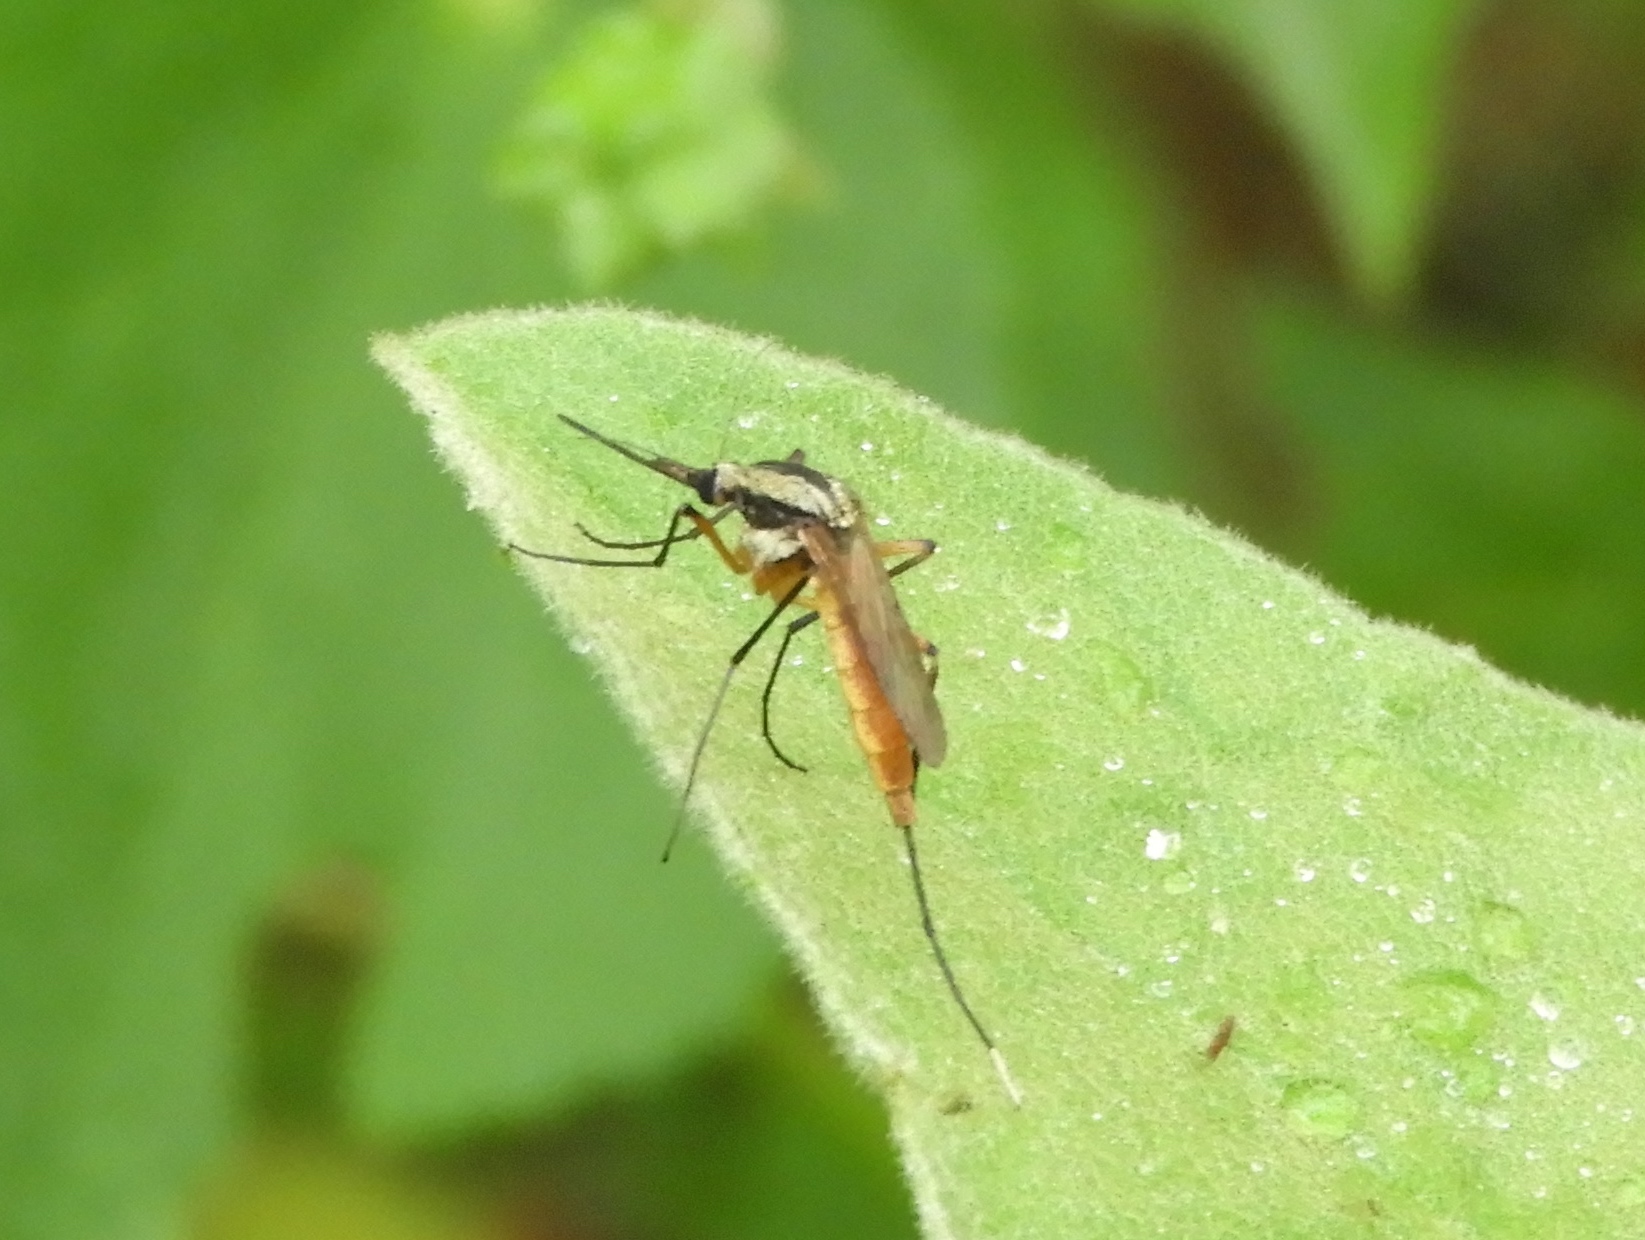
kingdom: Animalia
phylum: Arthropoda
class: Insecta
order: Diptera
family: Culicidae
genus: Psorophora
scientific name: Psorophora
